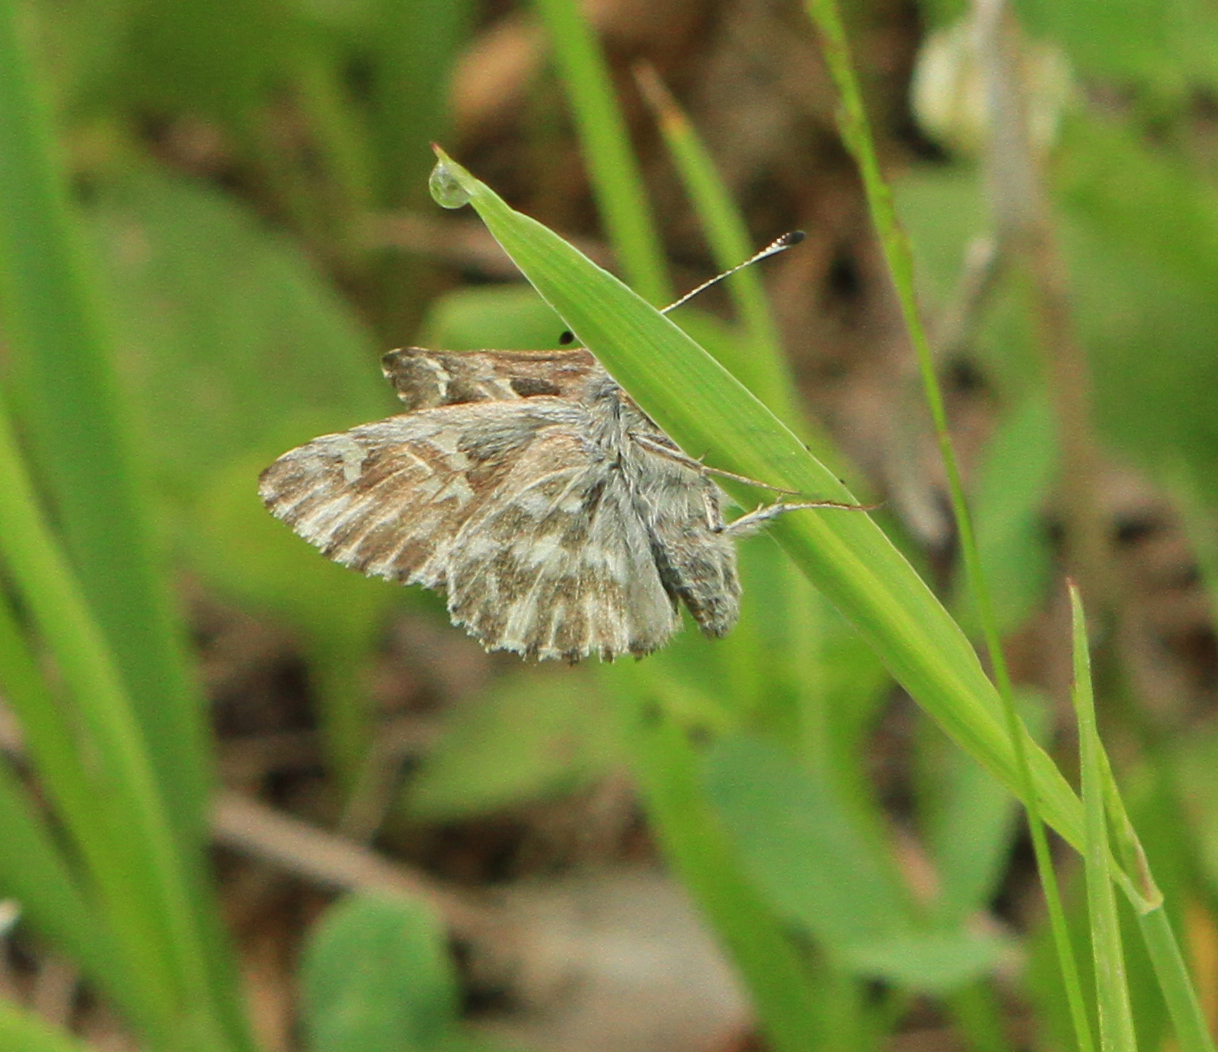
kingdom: Animalia
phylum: Arthropoda
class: Insecta
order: Lepidoptera
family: Hesperiidae
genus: Carcharodus
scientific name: Carcharodus floccifera
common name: Tufted marbled skipper
